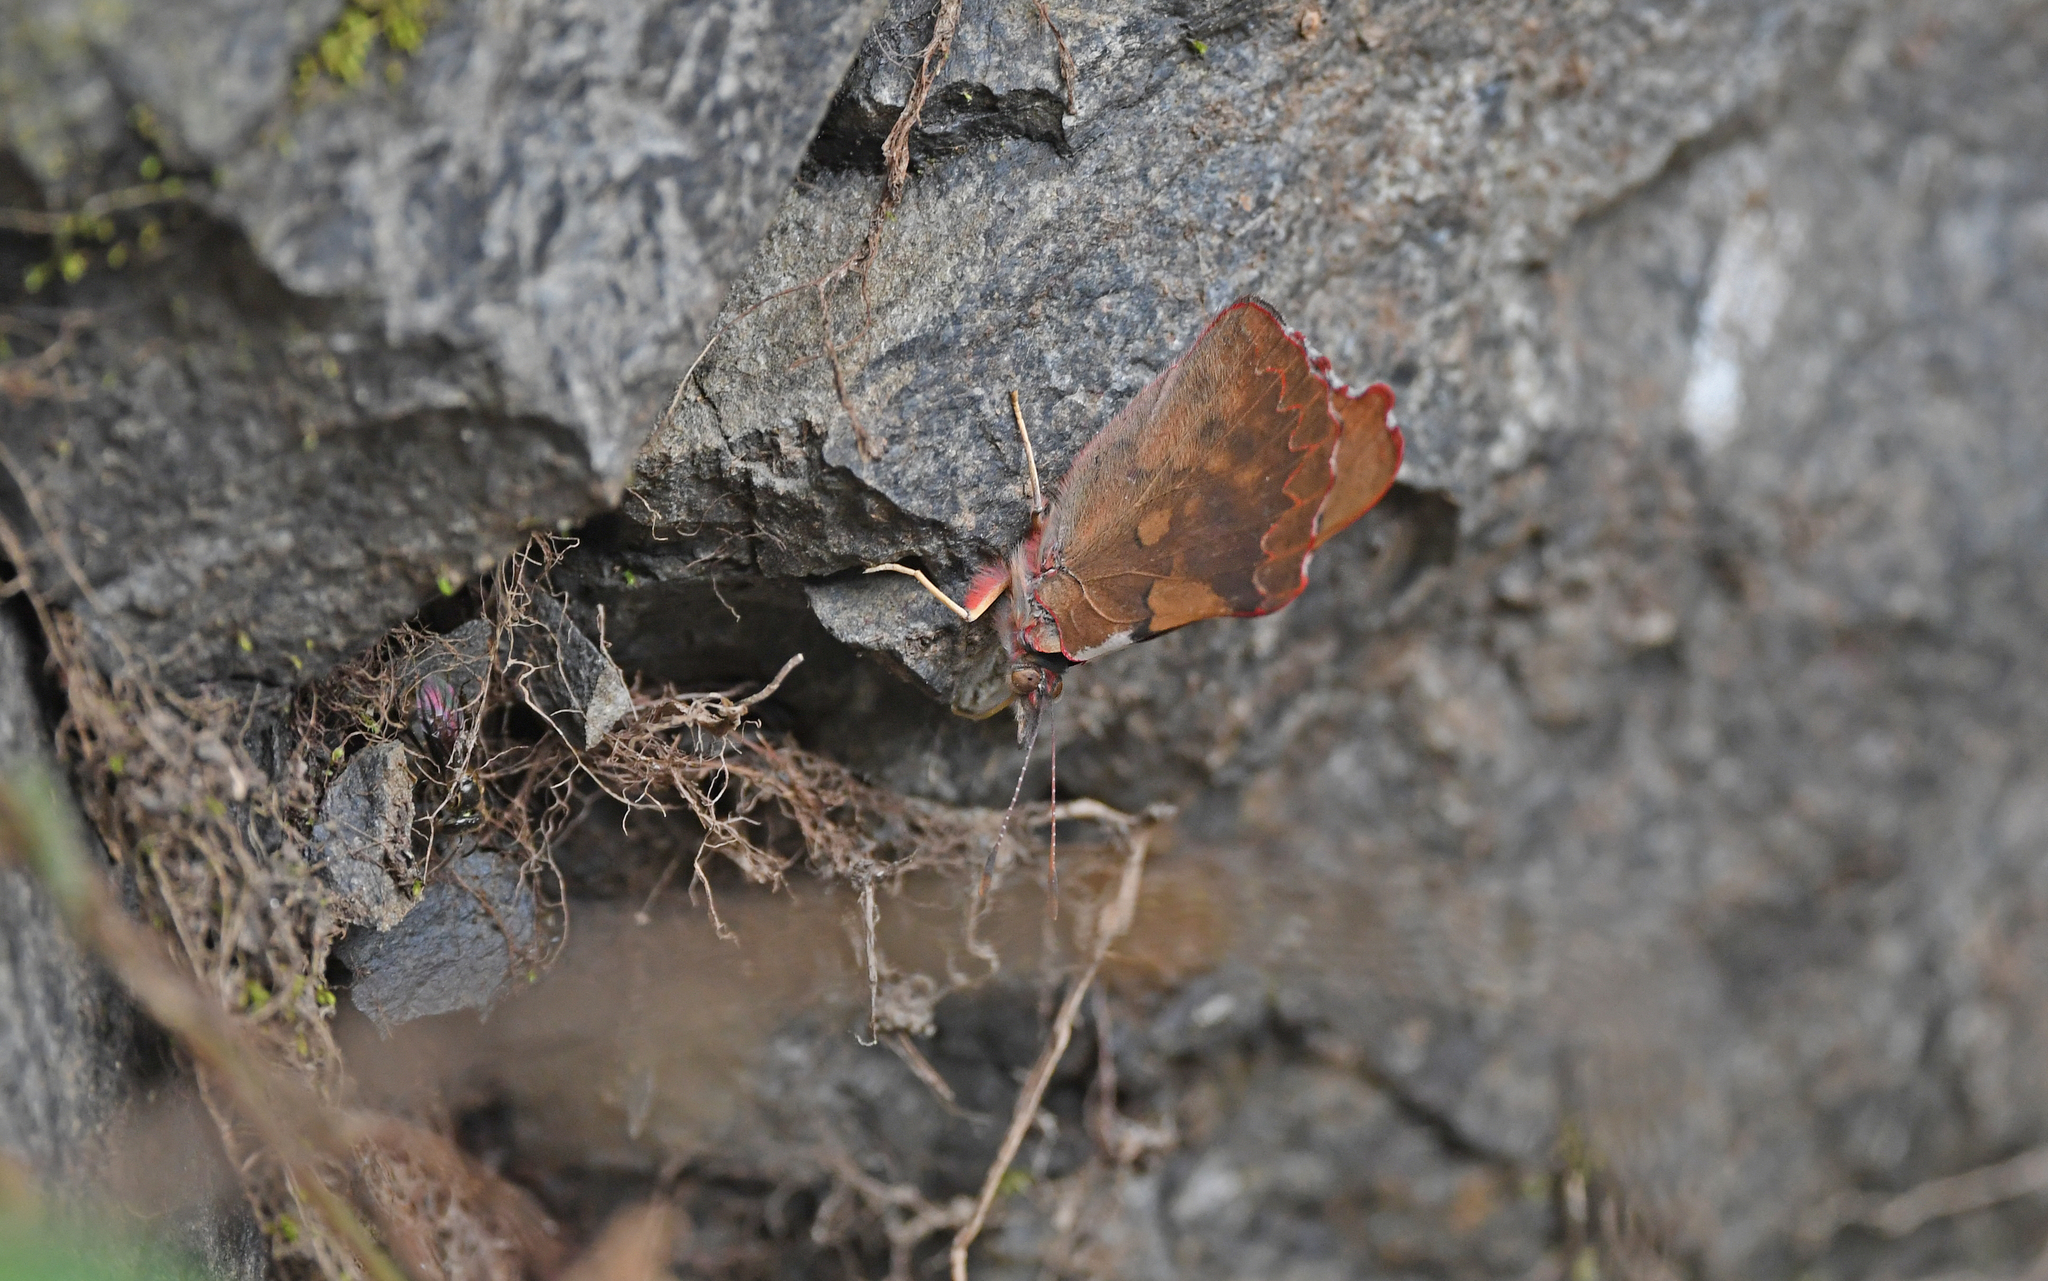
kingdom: Animalia
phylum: Arthropoda
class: Insecta
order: Lepidoptera
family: Nymphalidae
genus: Perisama
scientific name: Perisama diotima
